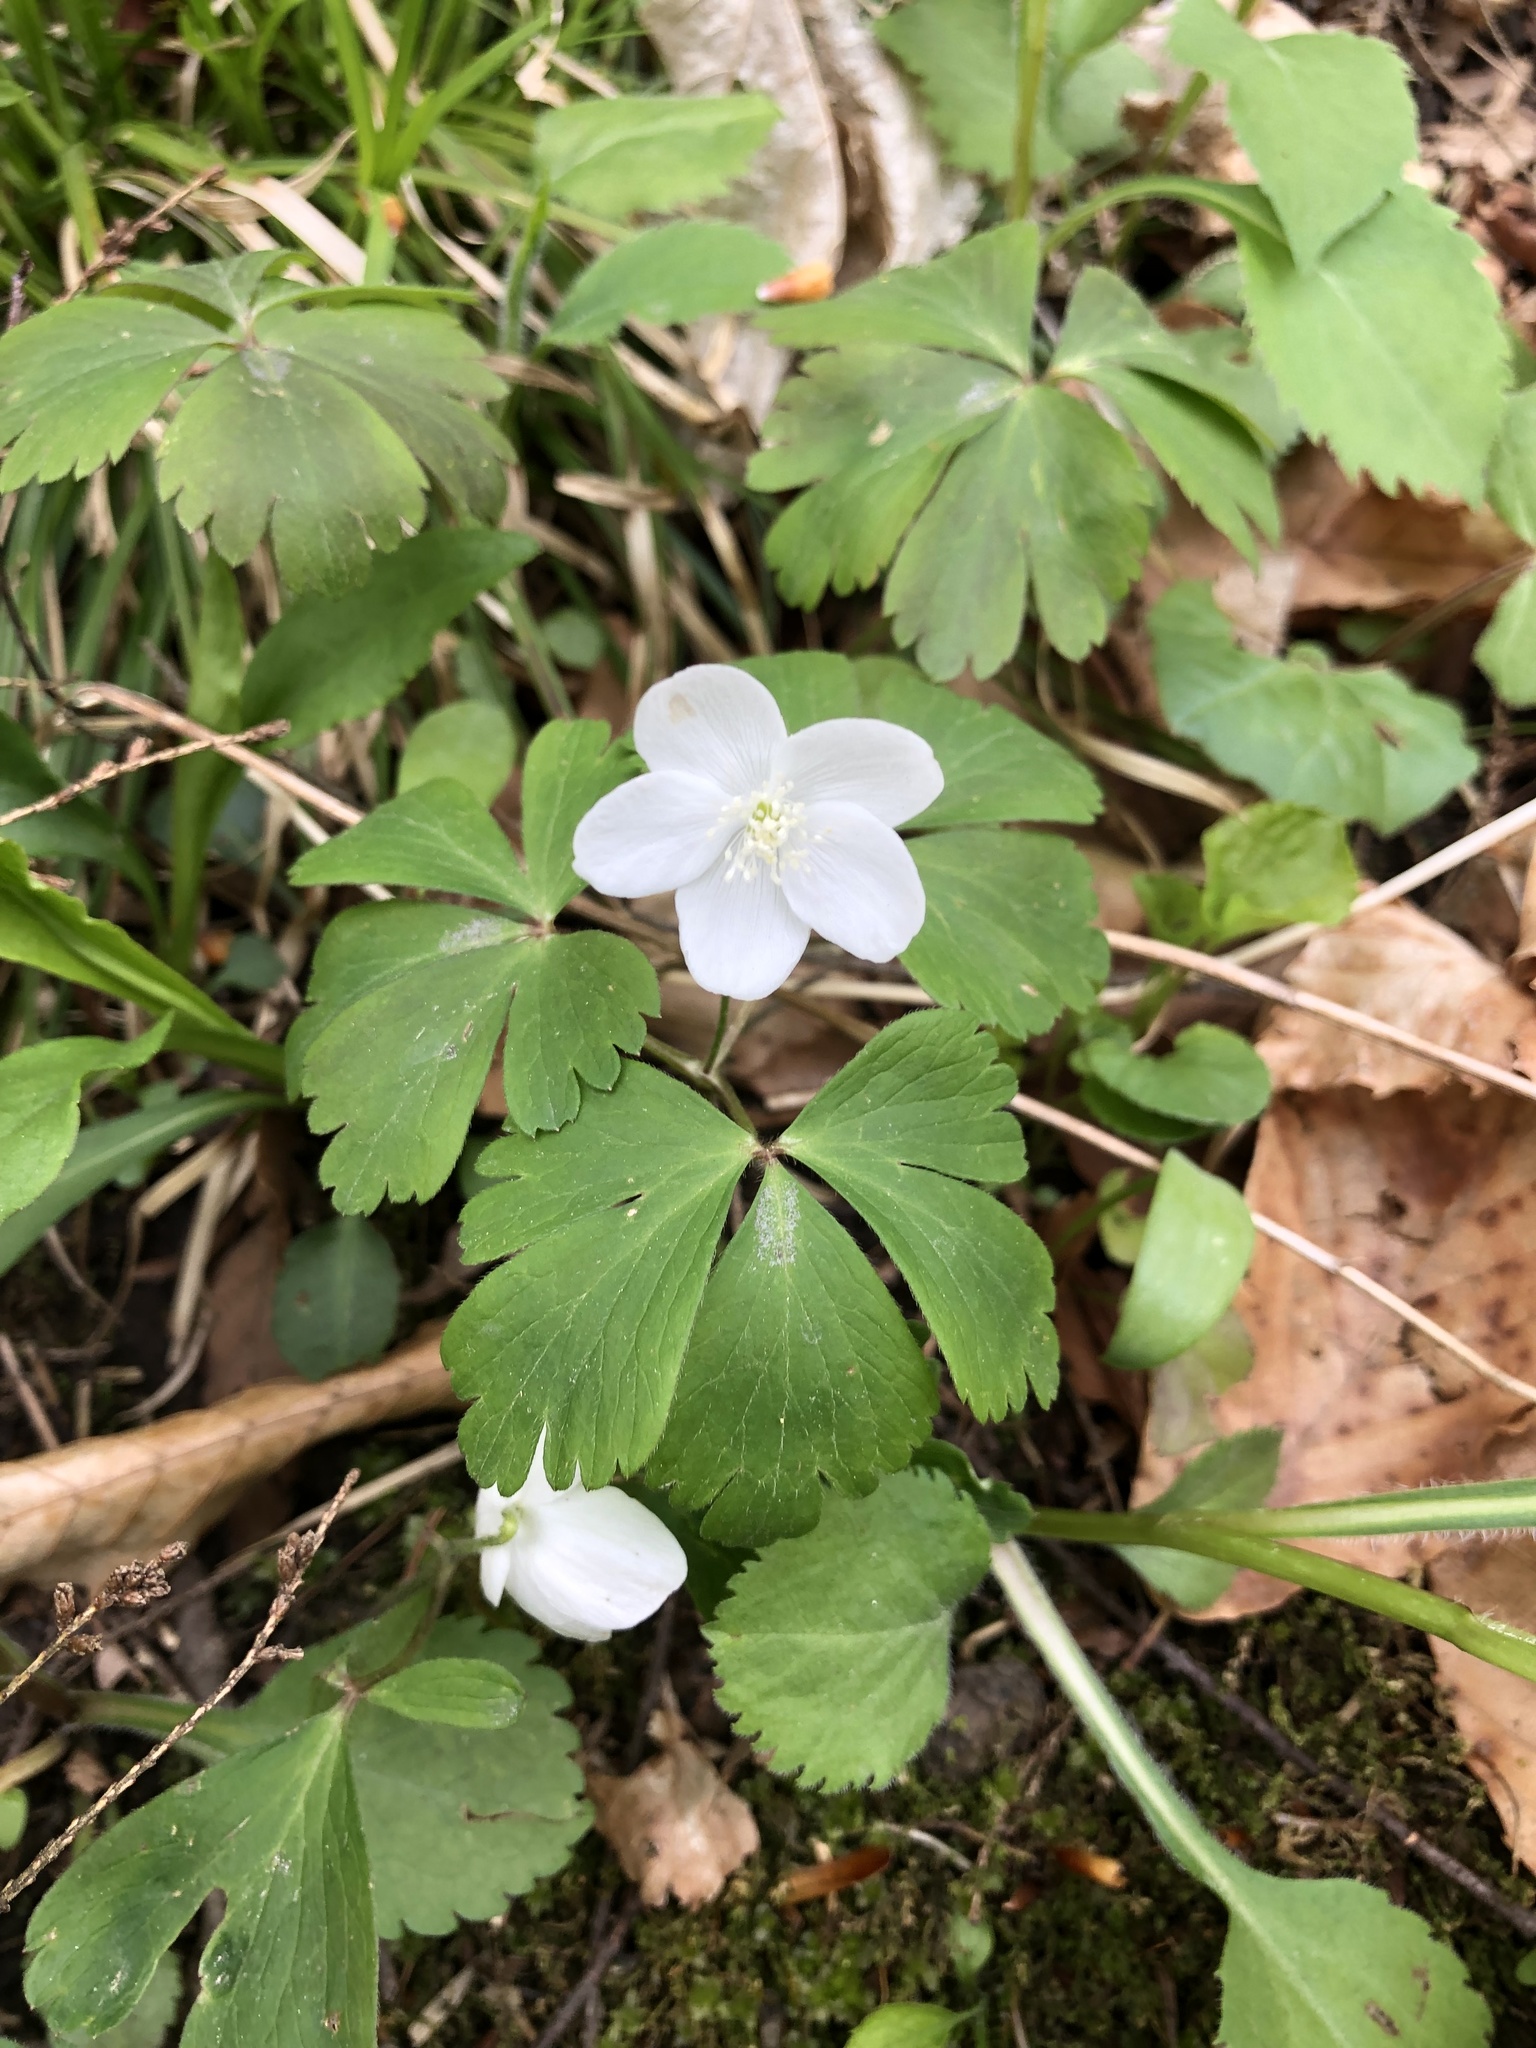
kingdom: Plantae
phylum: Tracheophyta
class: Magnoliopsida
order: Ranunculales
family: Ranunculaceae
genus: Anemone
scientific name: Anemone quinquefolia
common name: Wood anemone
